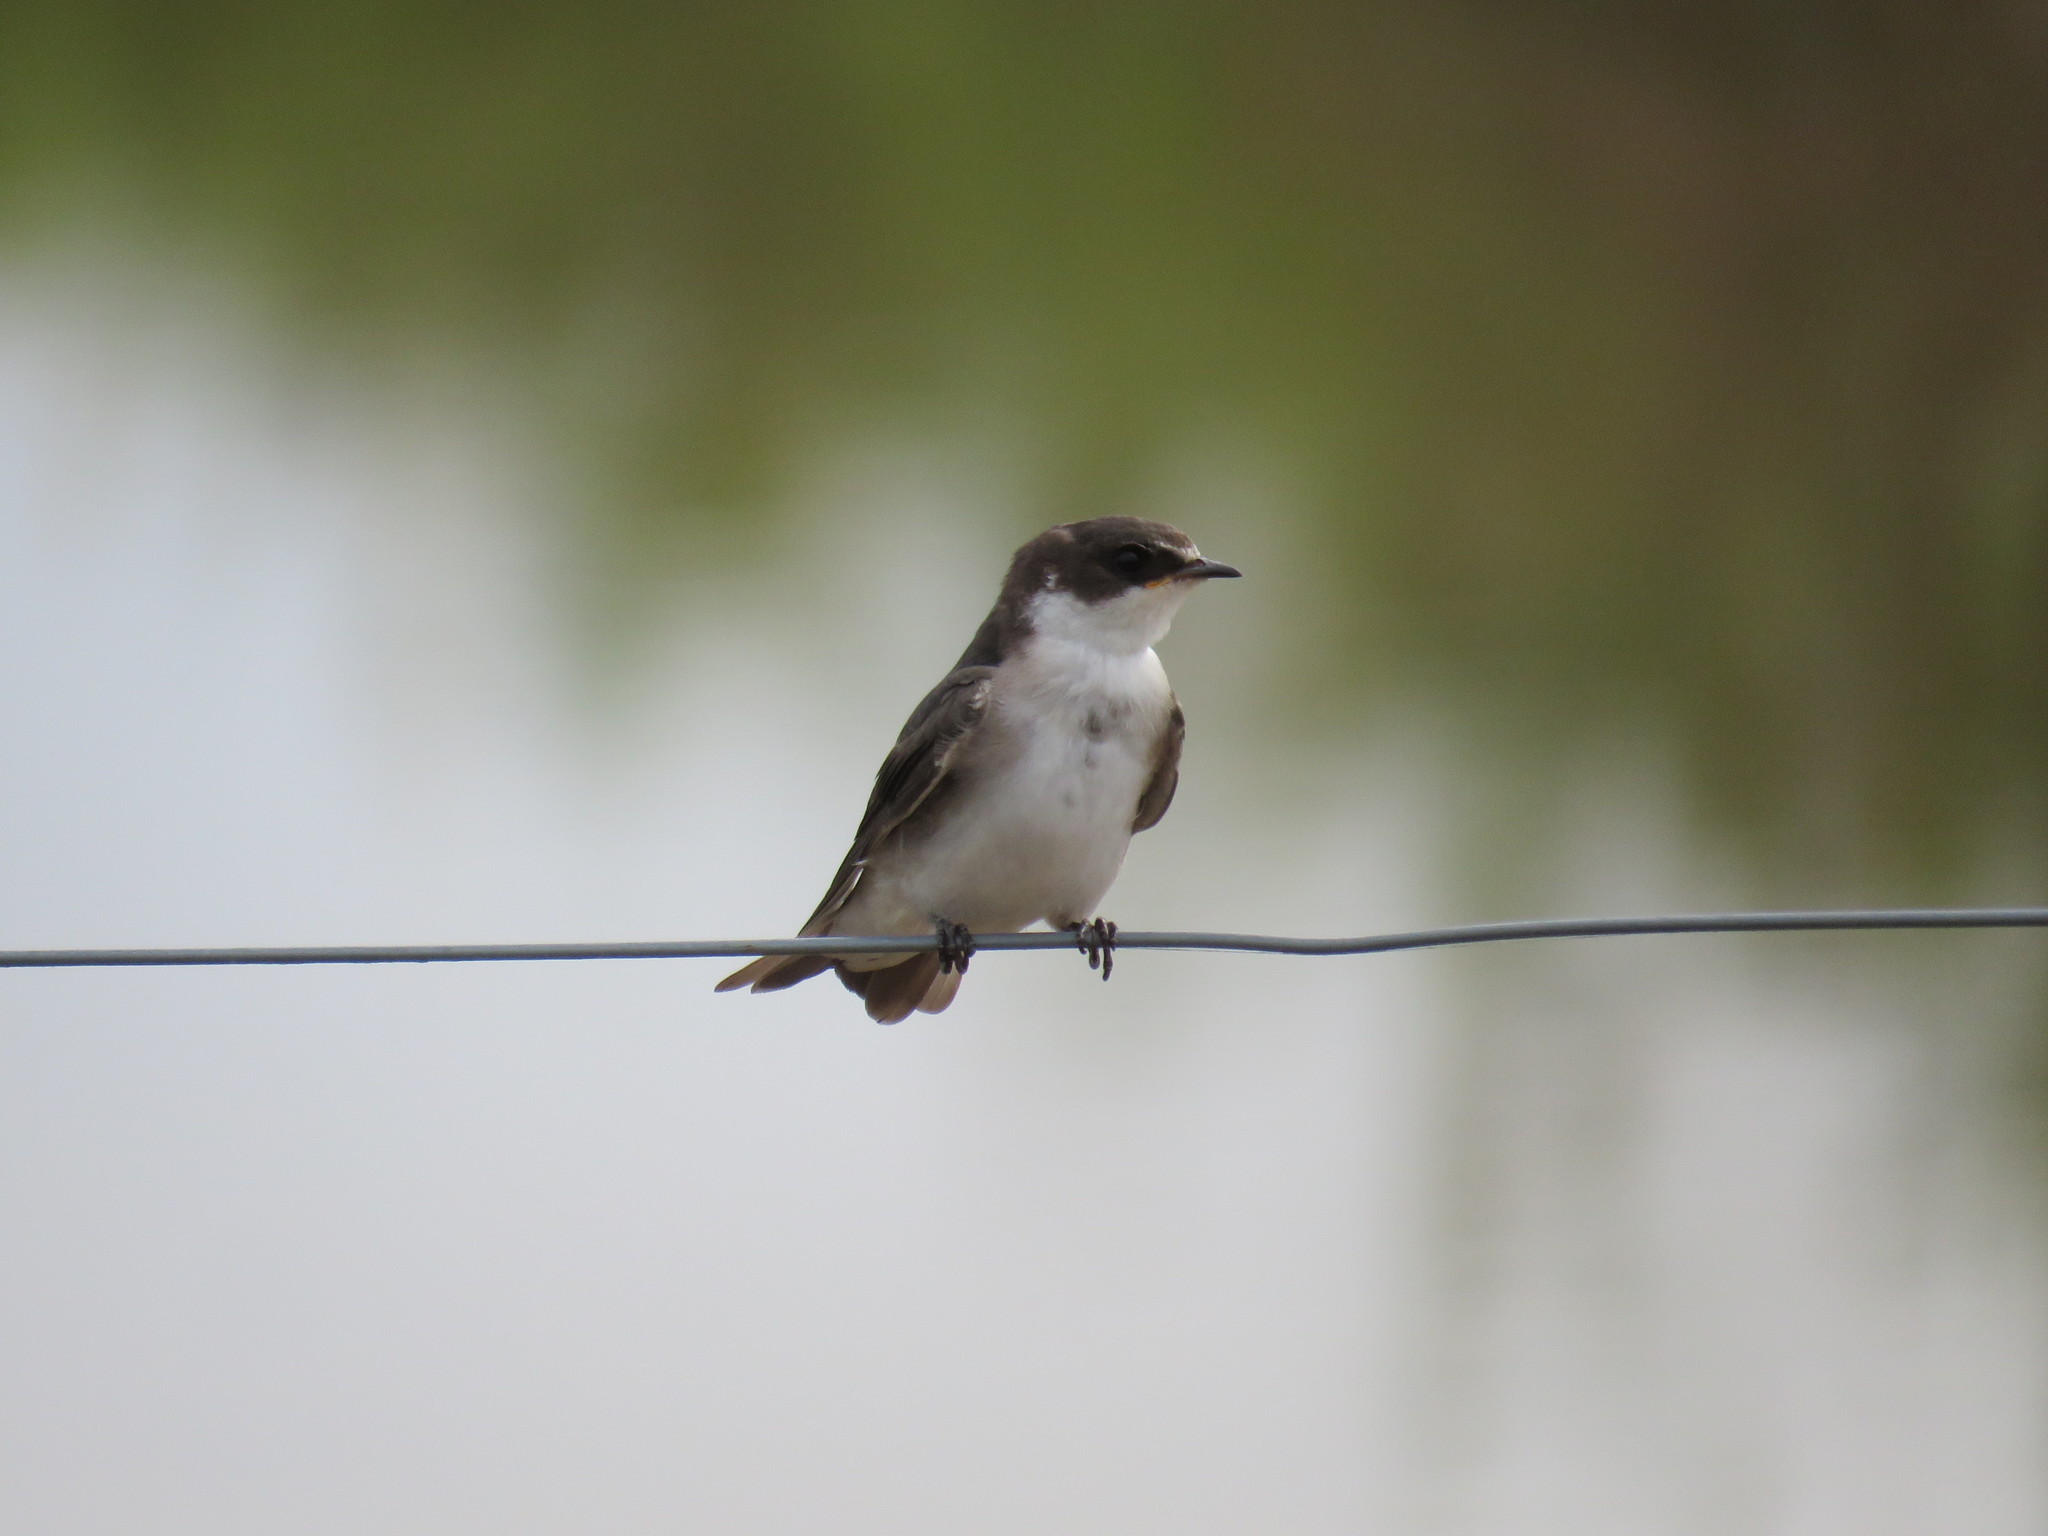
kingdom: Animalia
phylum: Chordata
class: Aves
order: Passeriformes
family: Hirundinidae
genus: Tachycineta
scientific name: Tachycineta leucorrhoa
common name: White-rumped swallow
